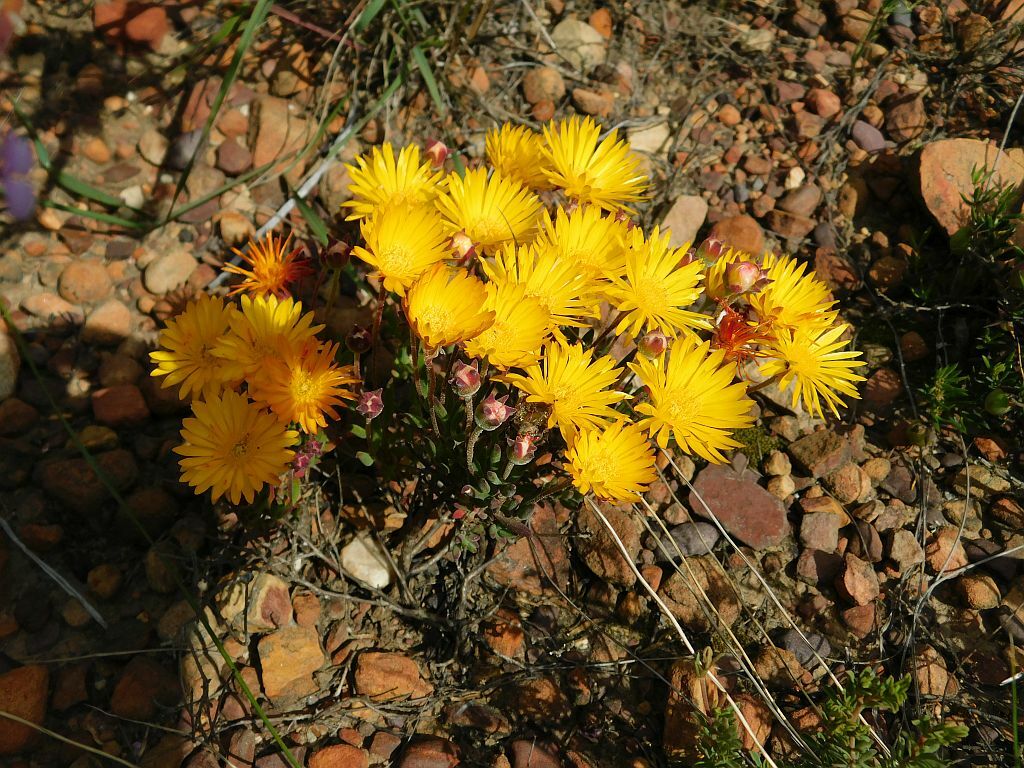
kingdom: Plantae
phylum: Tracheophyta
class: Magnoliopsida
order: Caryophyllales
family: Aizoaceae
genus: Drosanthemum
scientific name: Drosanthemum flavum
